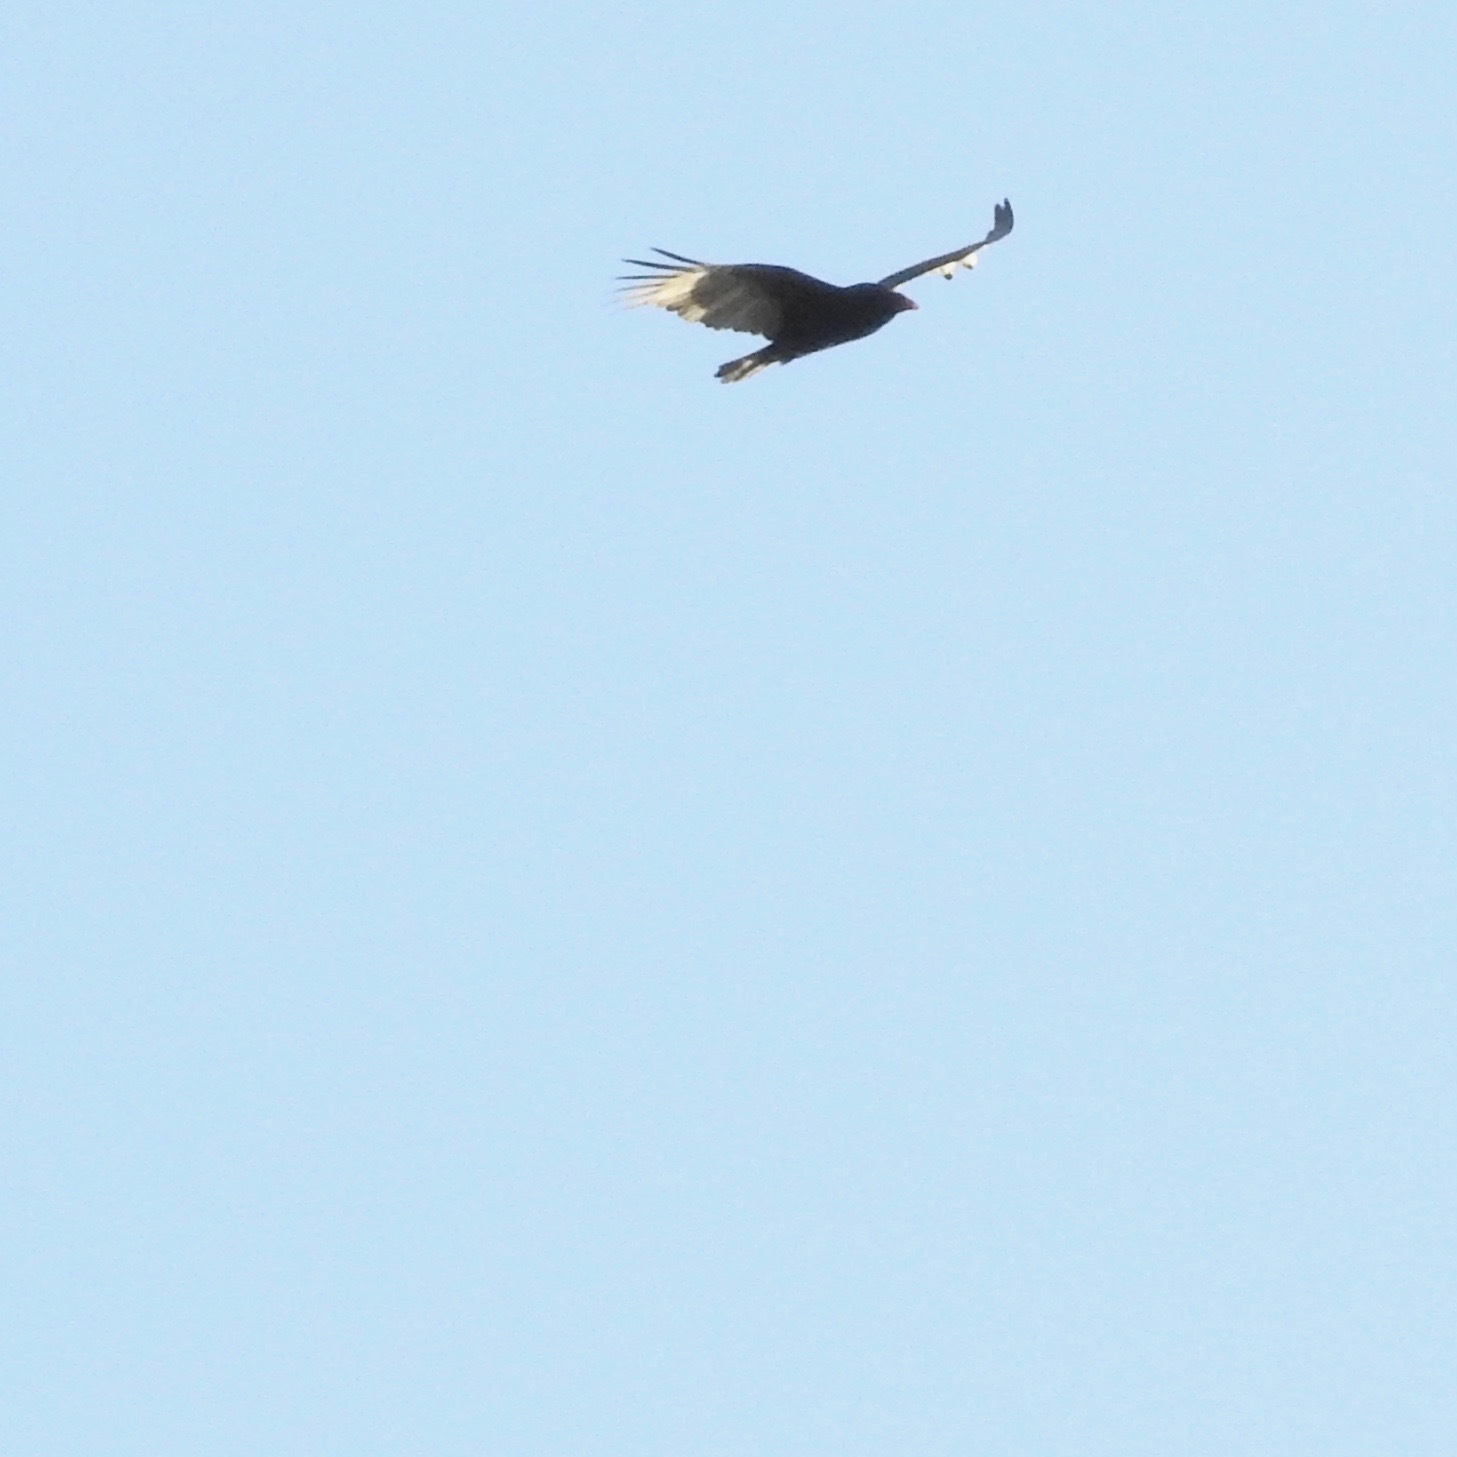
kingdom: Animalia
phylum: Chordata
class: Aves
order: Accipitriformes
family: Cathartidae
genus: Cathartes
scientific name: Cathartes aura
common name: Turkey vulture
